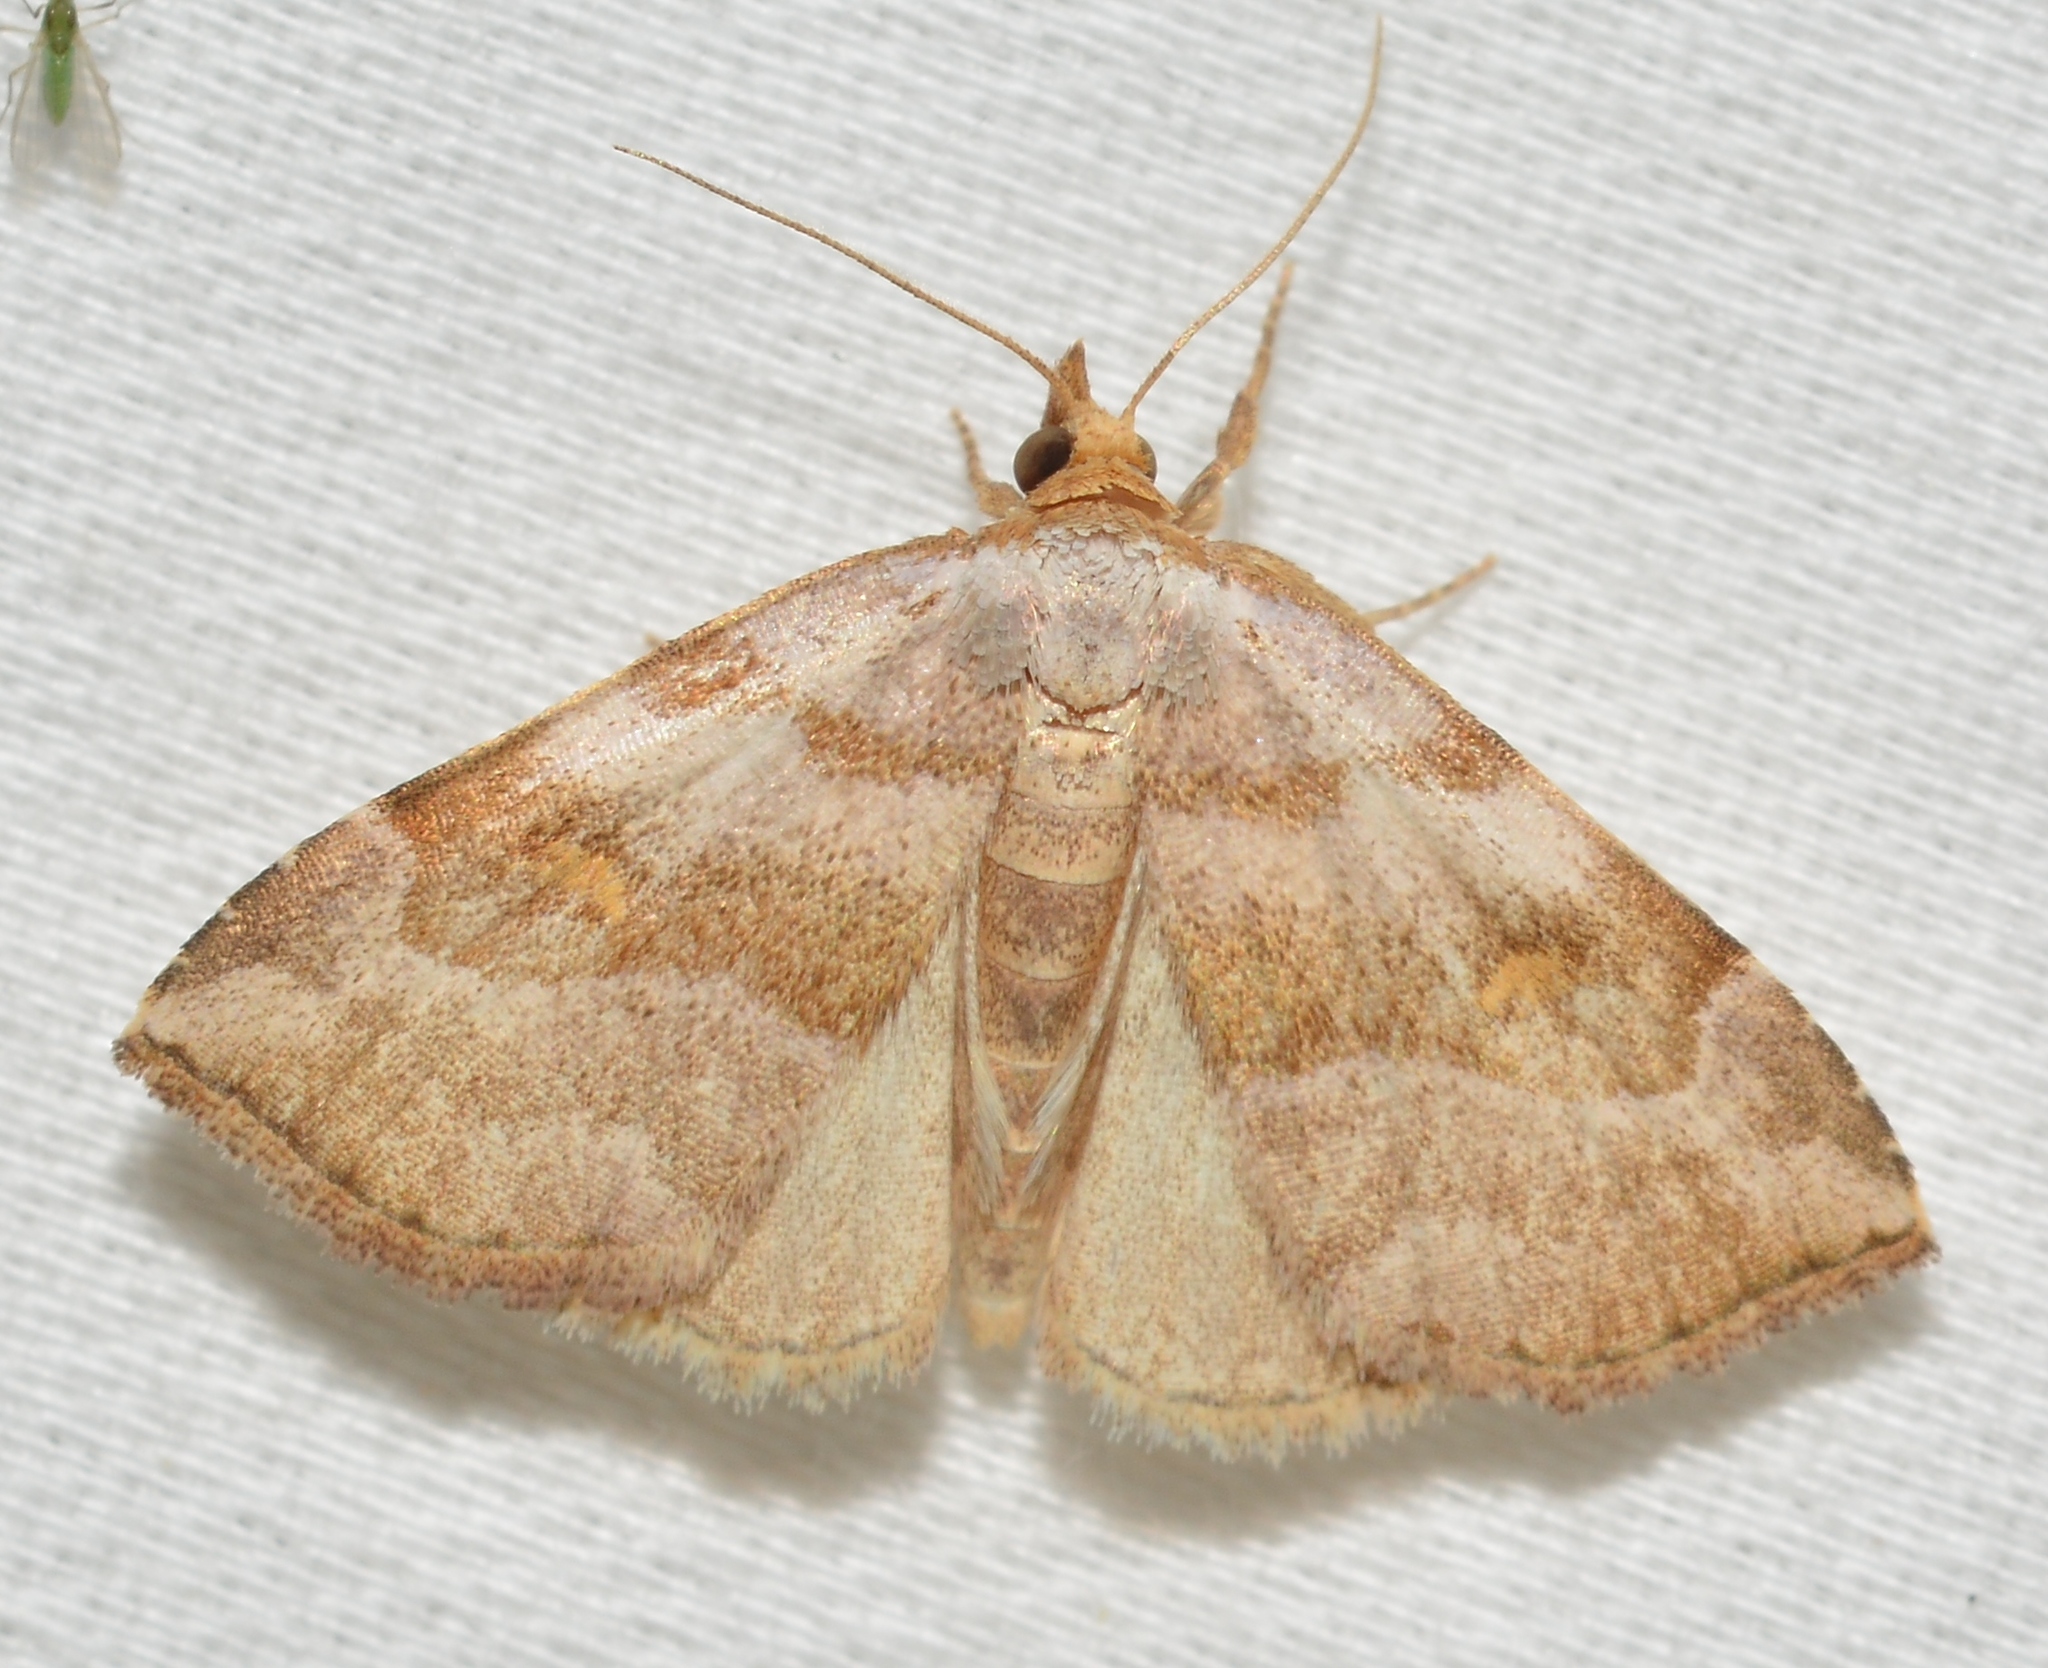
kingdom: Animalia
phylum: Arthropoda
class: Insecta
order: Lepidoptera
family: Erebidae
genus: Oxycilla
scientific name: Oxycilla malaca
